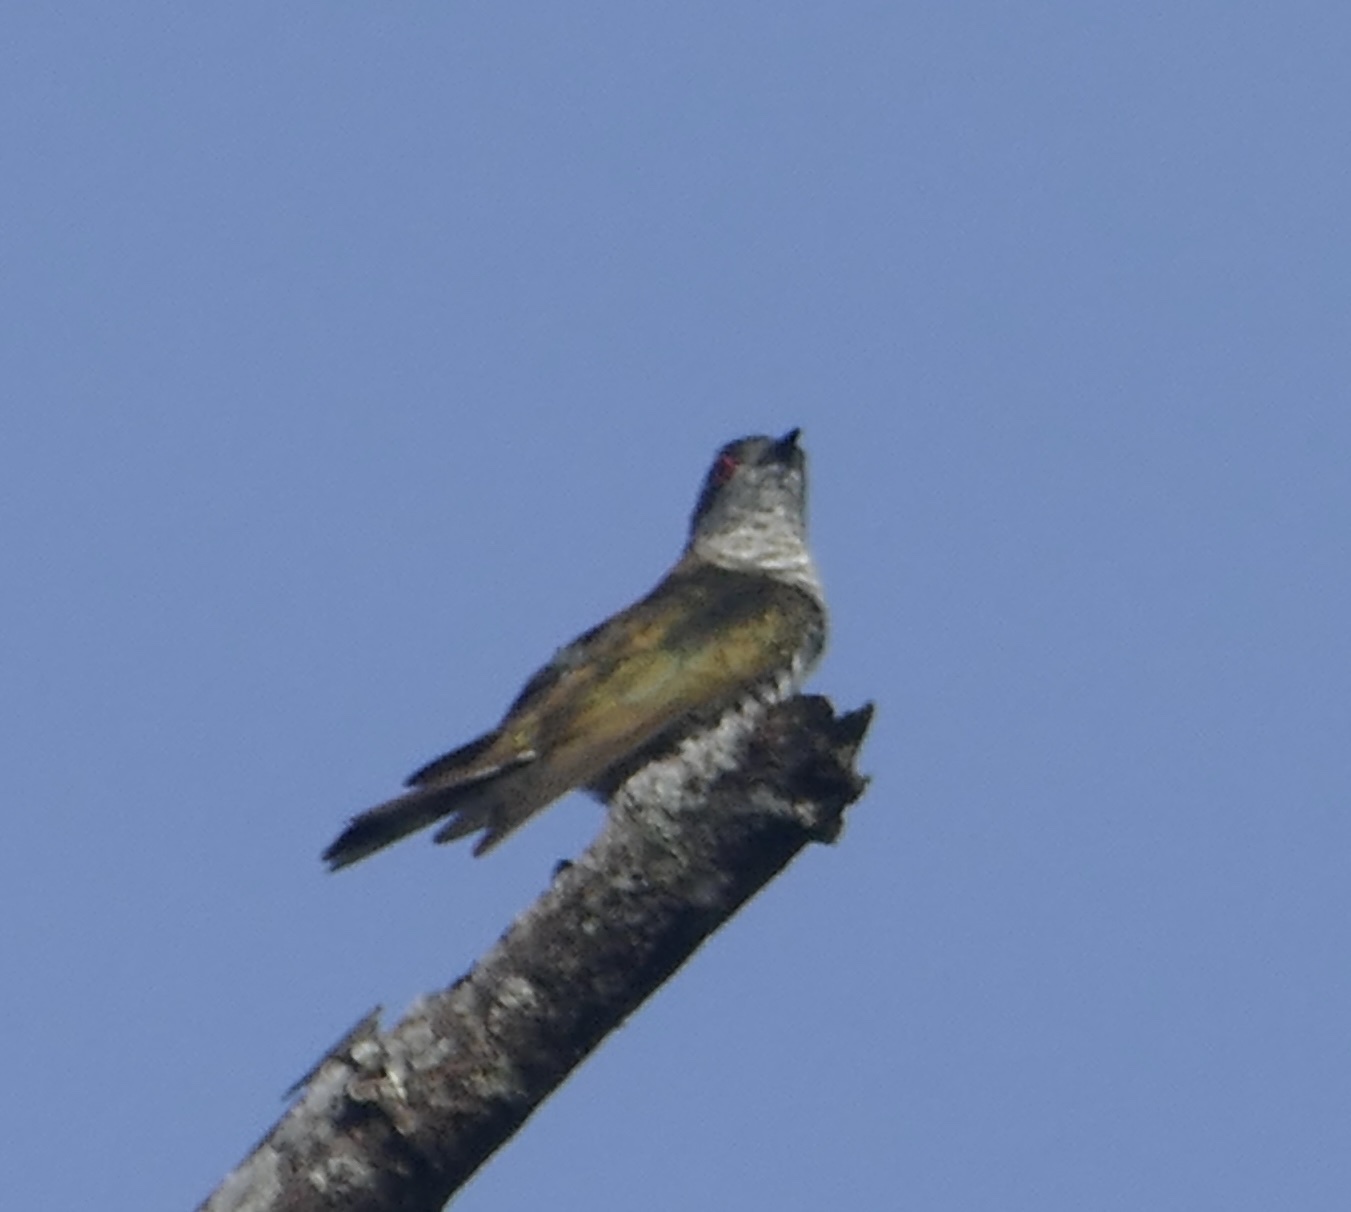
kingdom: Animalia
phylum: Chordata
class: Aves
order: Cuculiformes
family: Cuculidae
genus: Chrysococcyx
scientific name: Chrysococcyx minutillus
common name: Little bronze cuckoo
